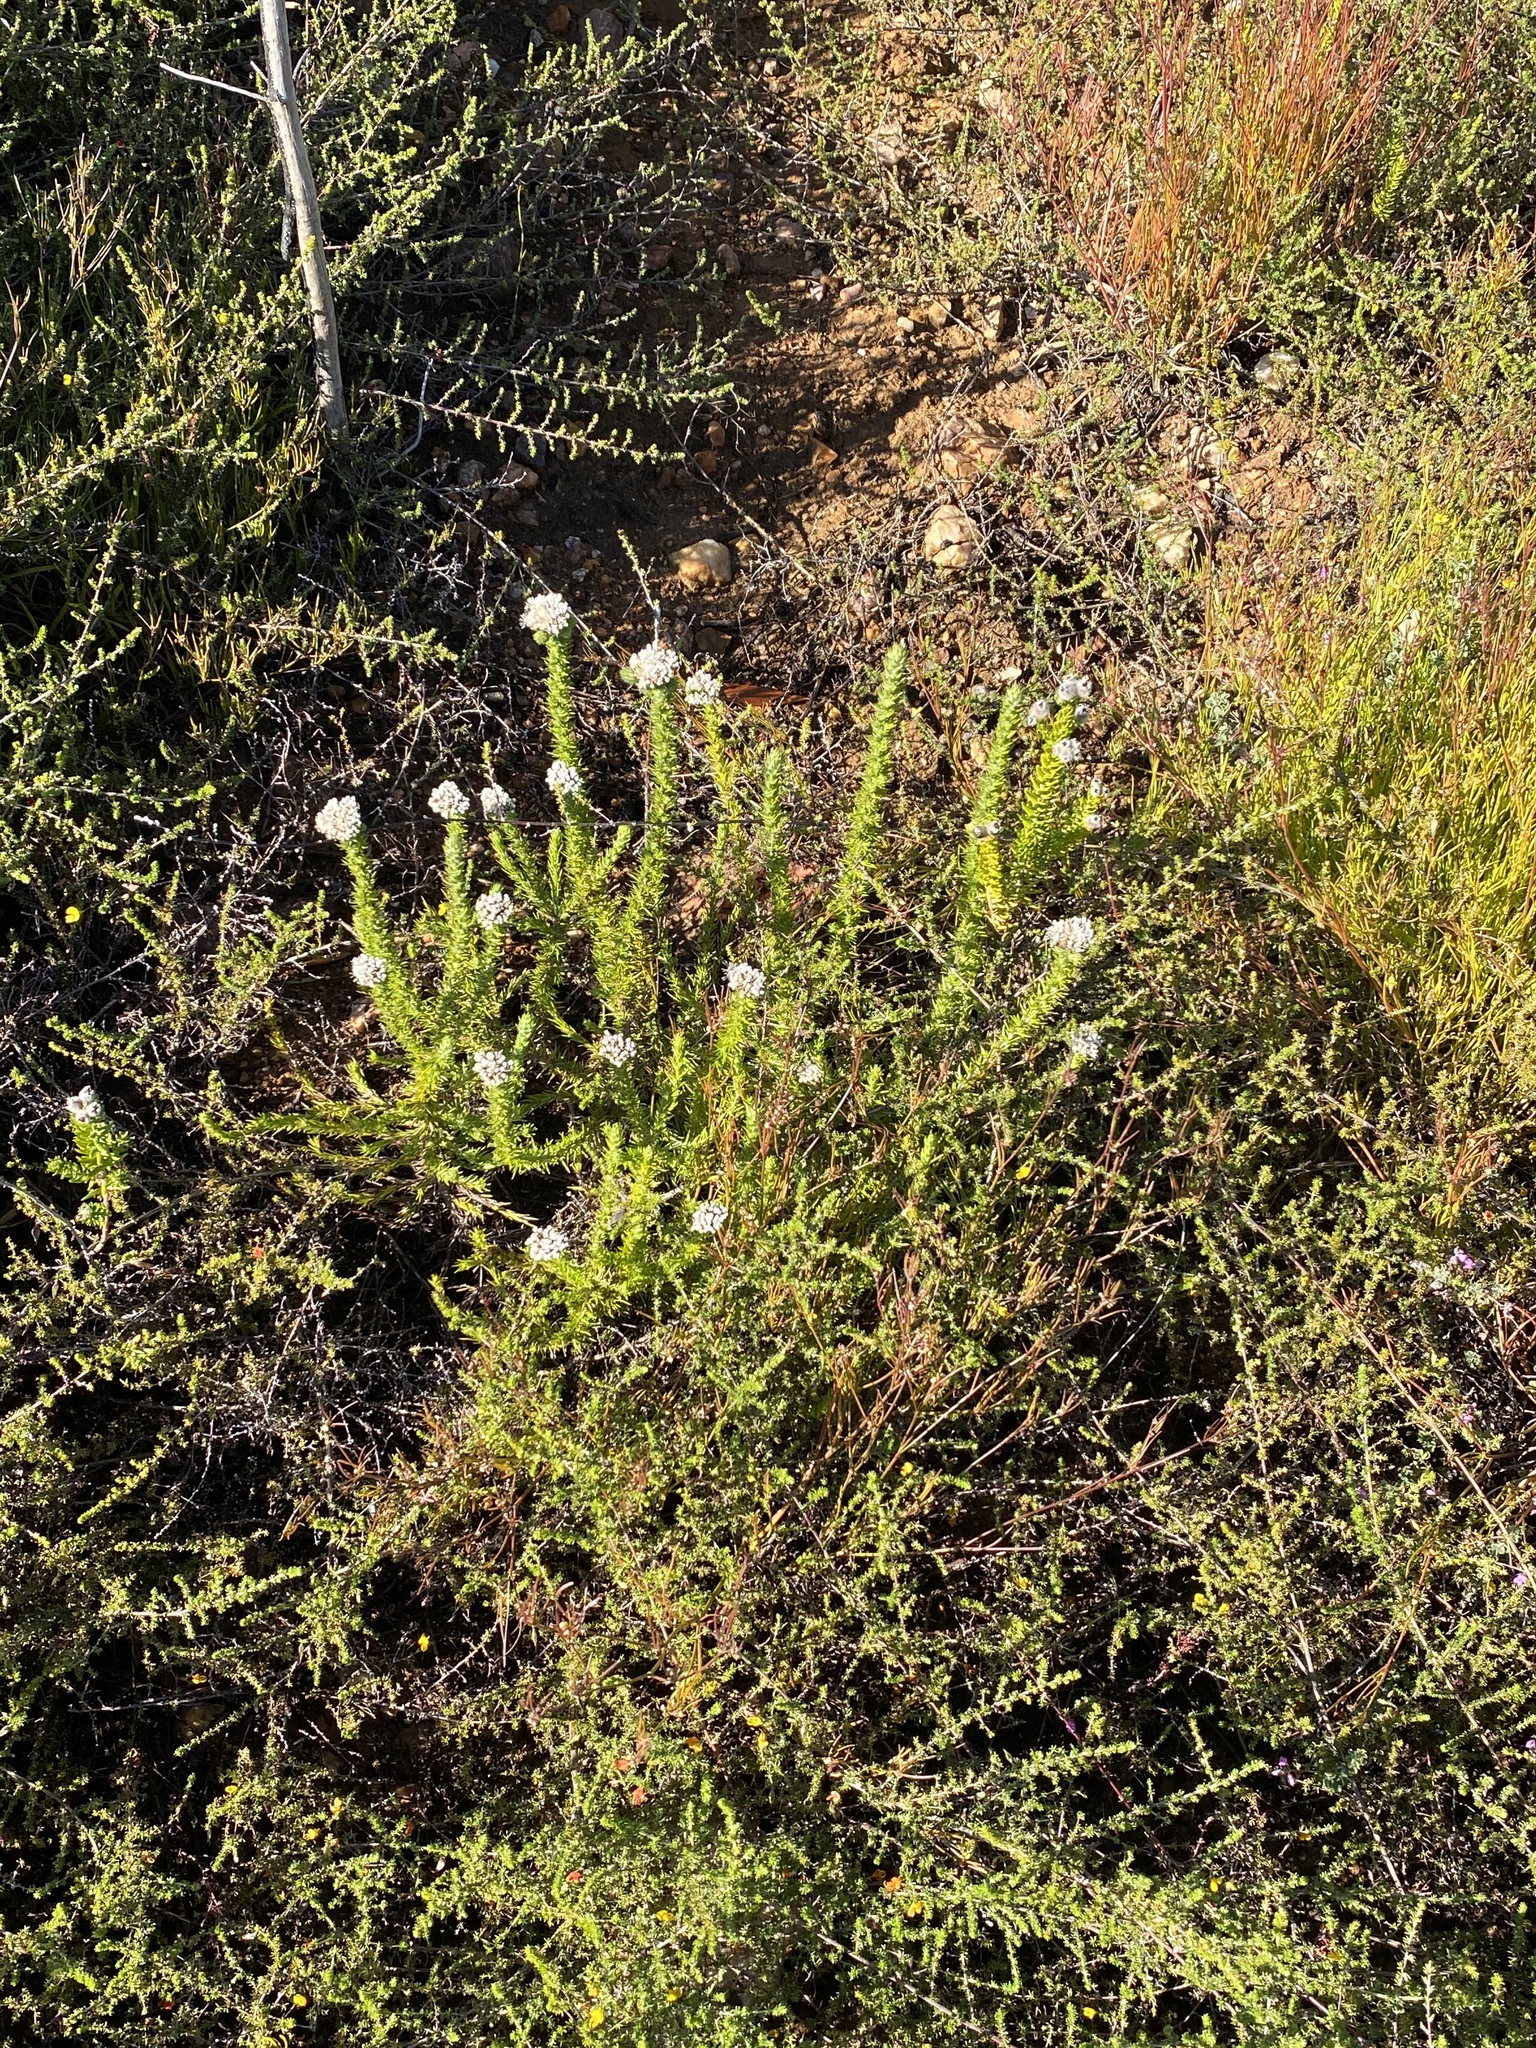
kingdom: Plantae
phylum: Tracheophyta
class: Magnoliopsida
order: Asterales
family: Asteraceae
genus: Metalasia
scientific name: Metalasia densa
